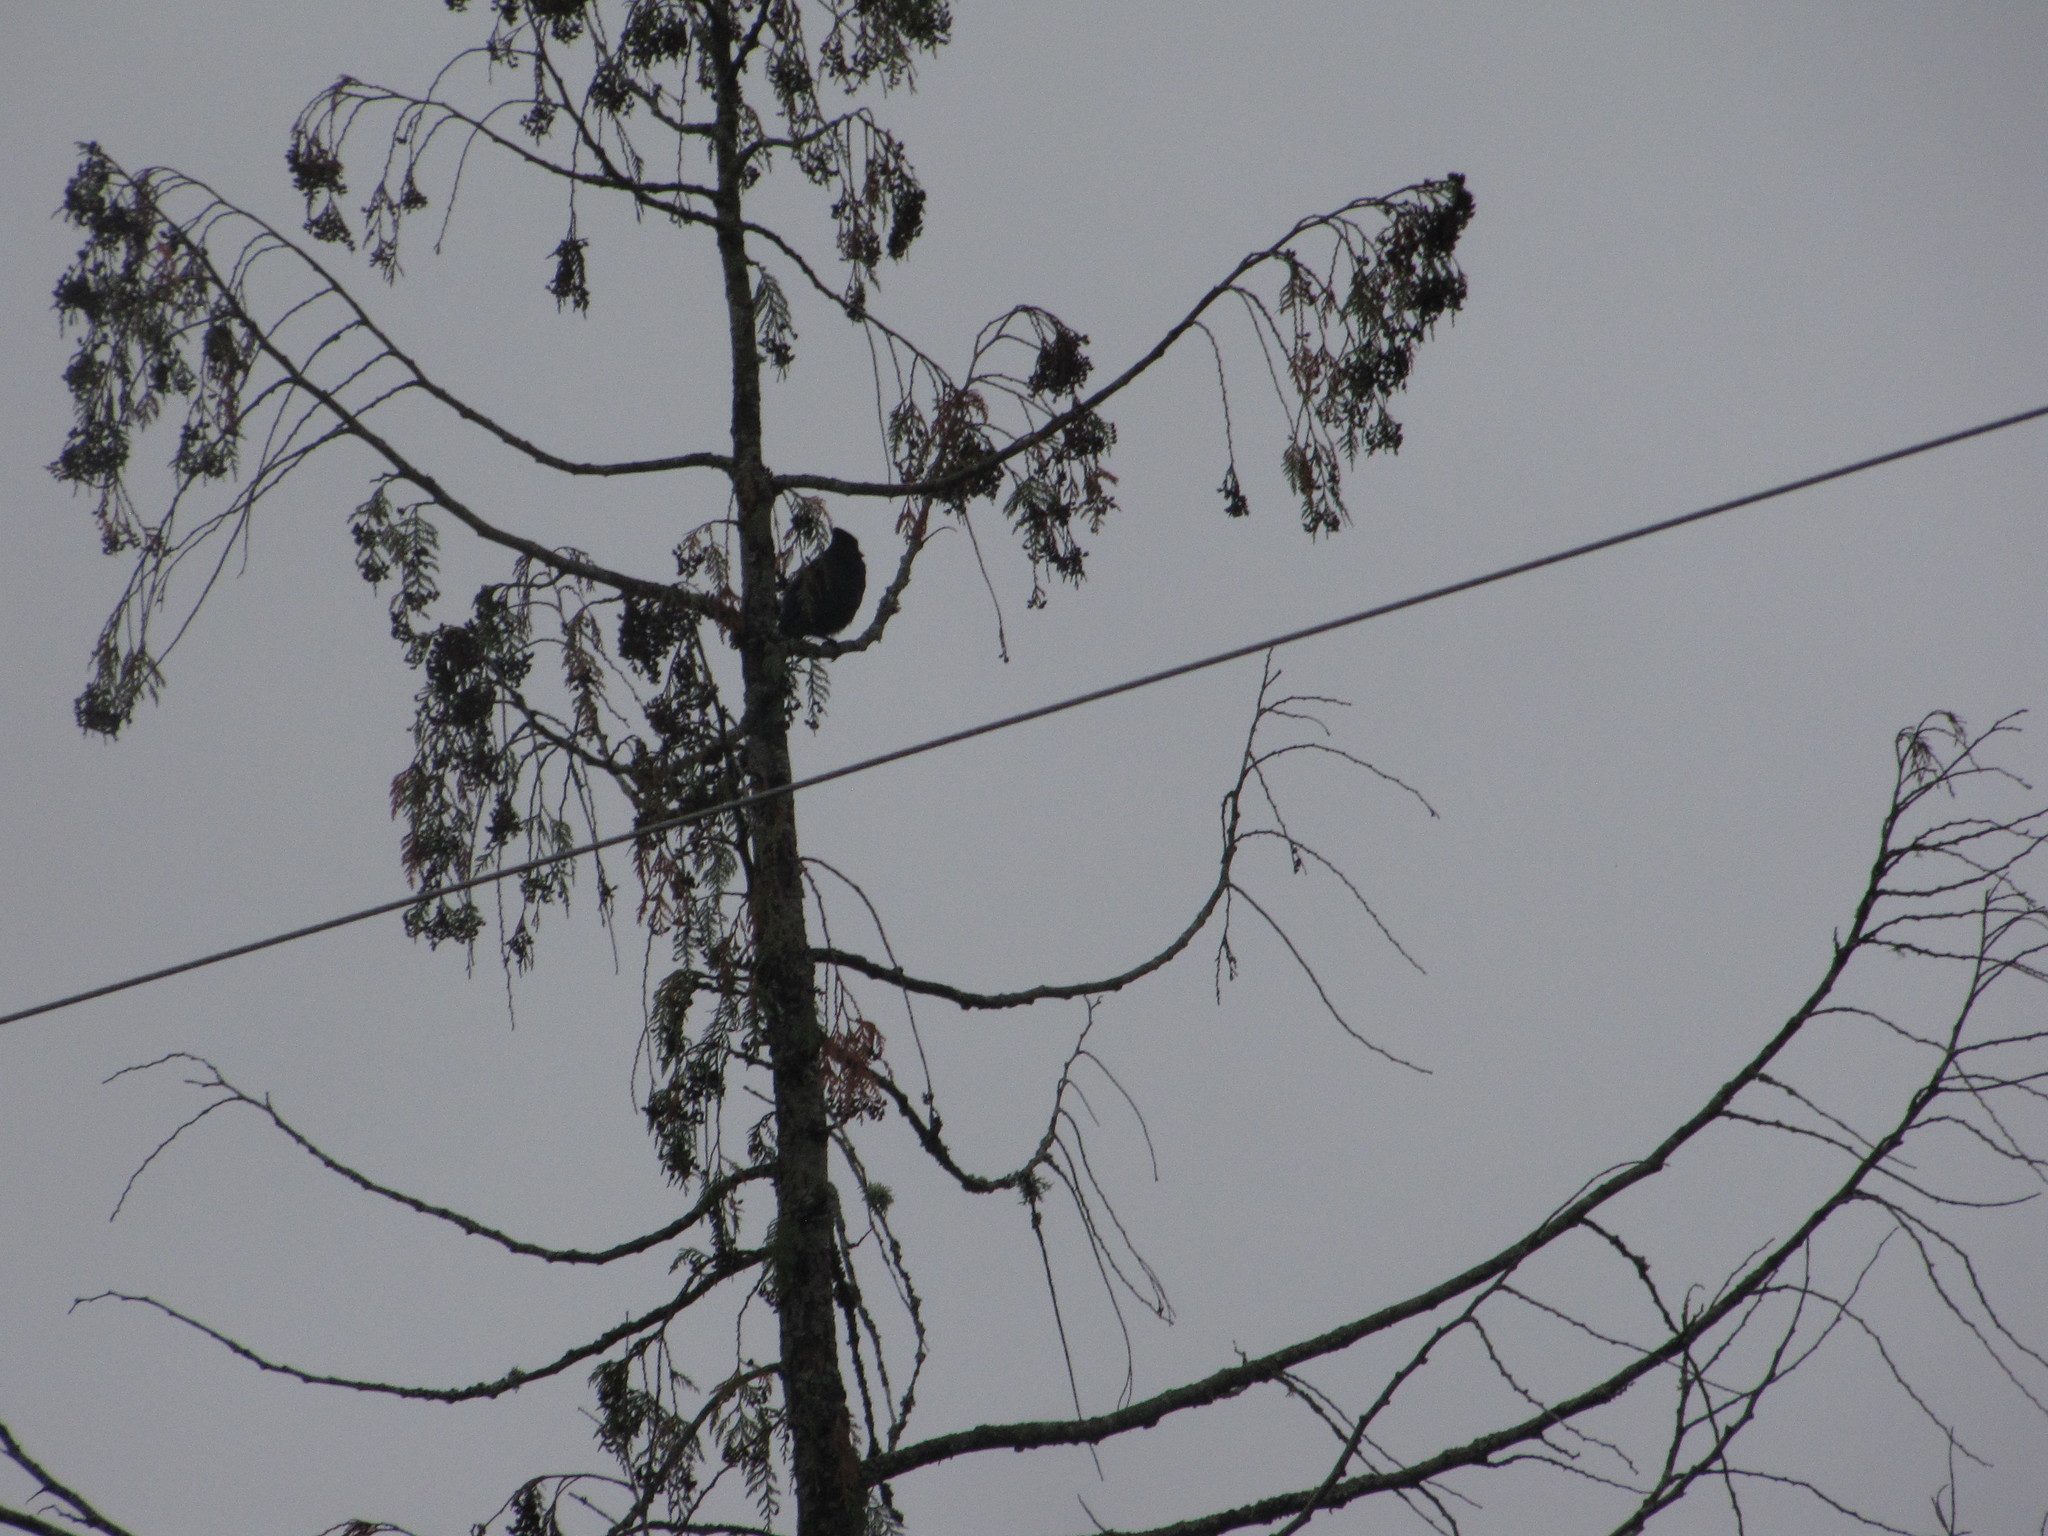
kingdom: Animalia
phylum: Chordata
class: Aves
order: Passeriformes
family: Corvidae
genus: Cyanocitta
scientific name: Cyanocitta stelleri
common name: Steller's jay
